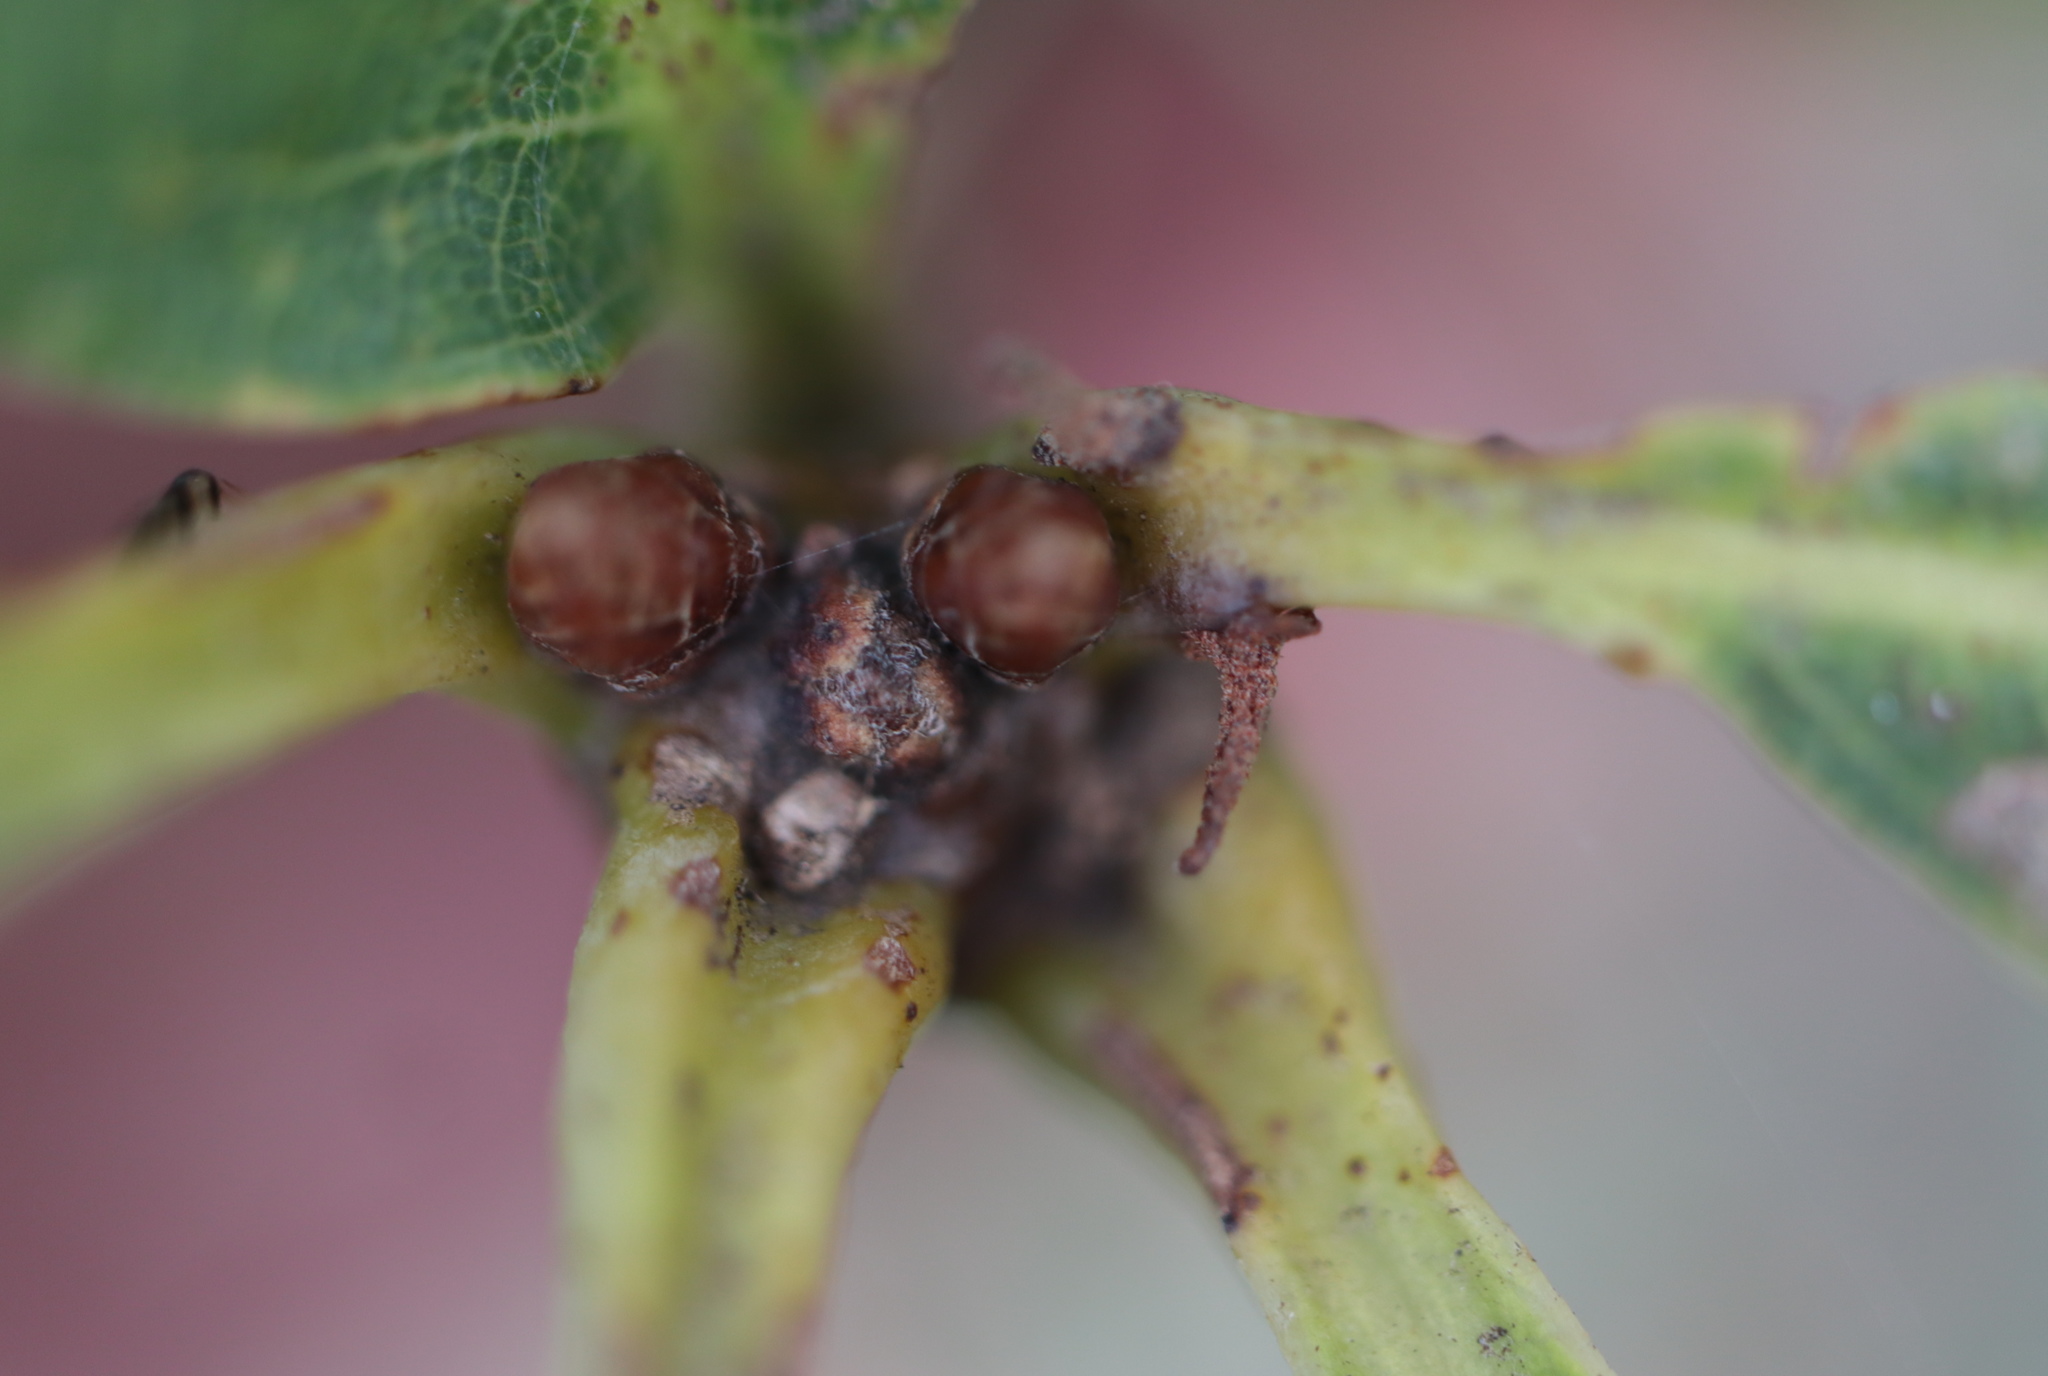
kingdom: Animalia
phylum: Arthropoda
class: Insecta
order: Hymenoptera
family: Cynipidae
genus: Zopheroteras
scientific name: Zopheroteras
